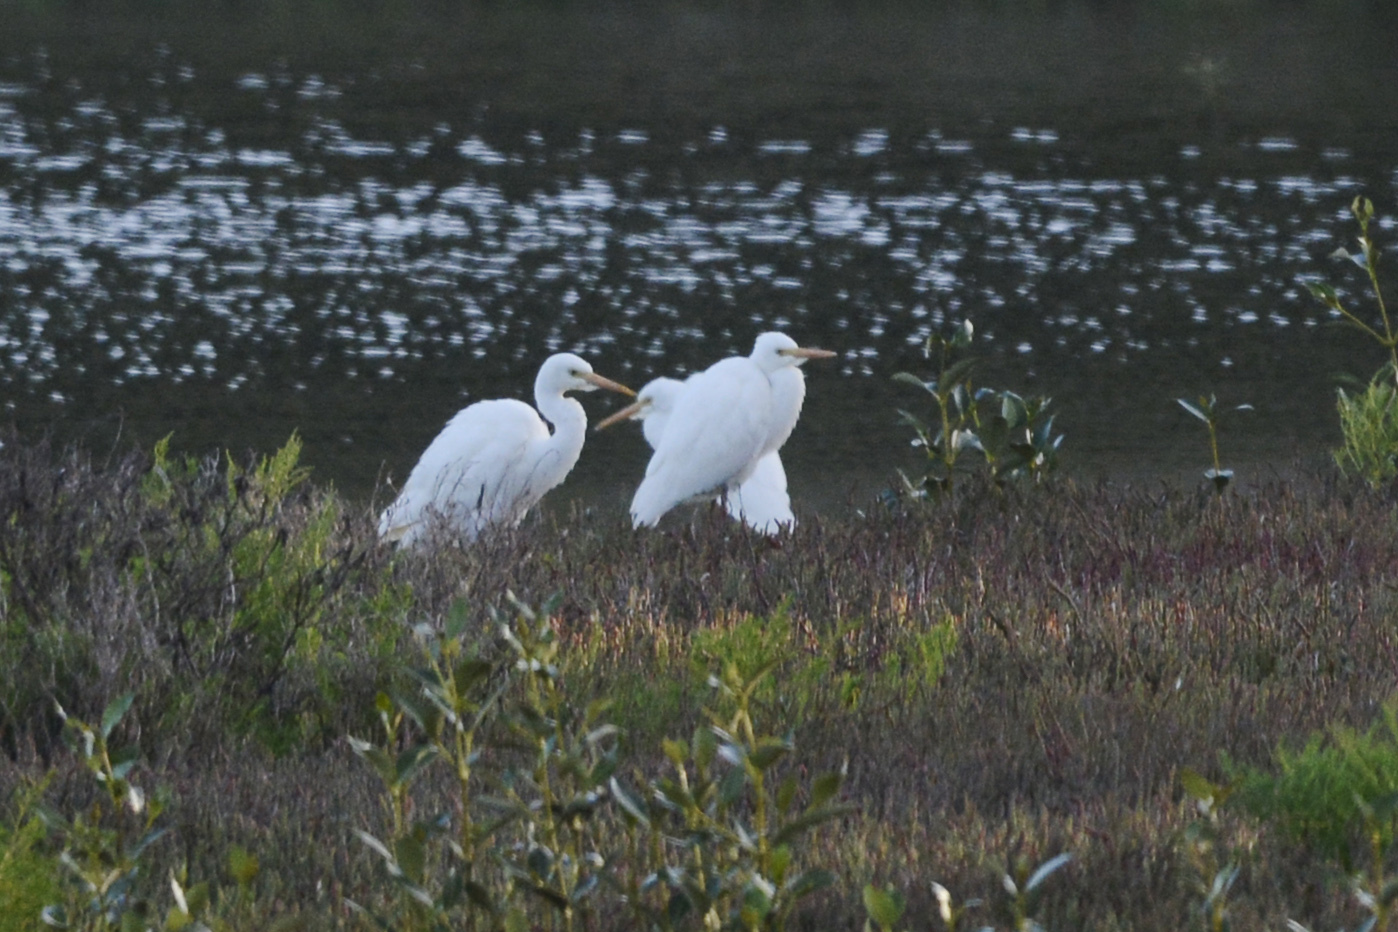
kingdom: Animalia
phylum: Chordata
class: Aves
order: Pelecaniformes
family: Ardeidae
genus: Egretta
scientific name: Egretta intermedia
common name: Intermediate egret
